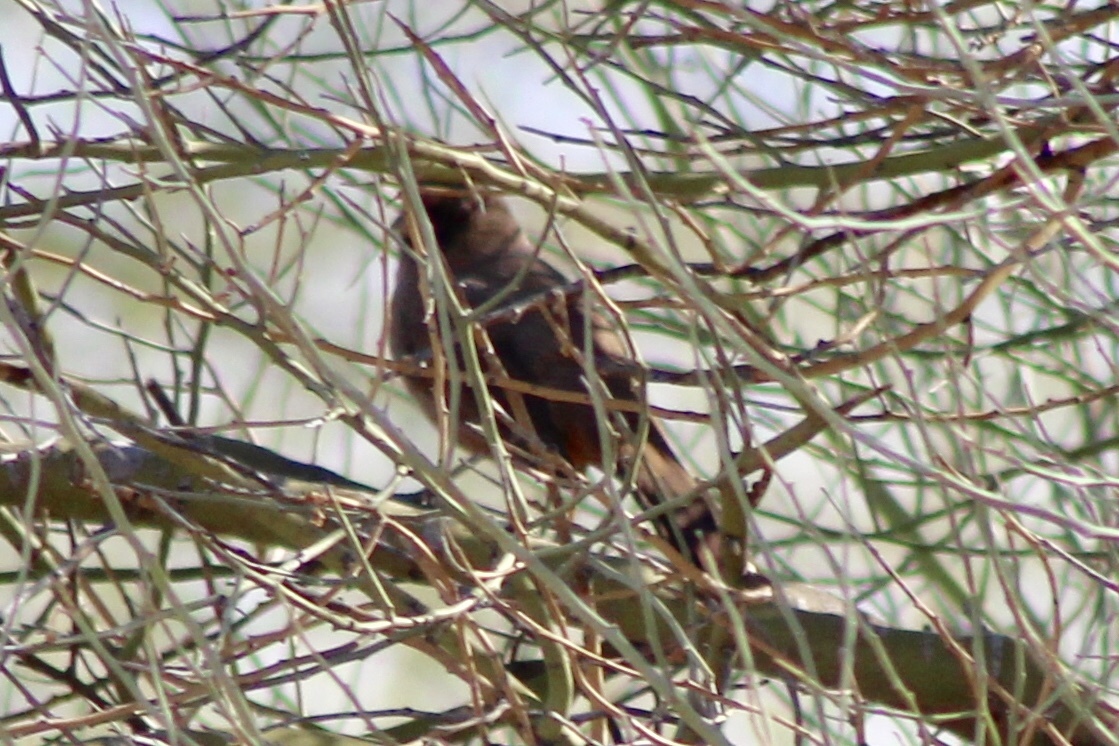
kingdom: Animalia
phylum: Chordata
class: Aves
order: Passeriformes
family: Passerellidae
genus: Melozone
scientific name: Melozone aberti
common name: Abert's towhee
